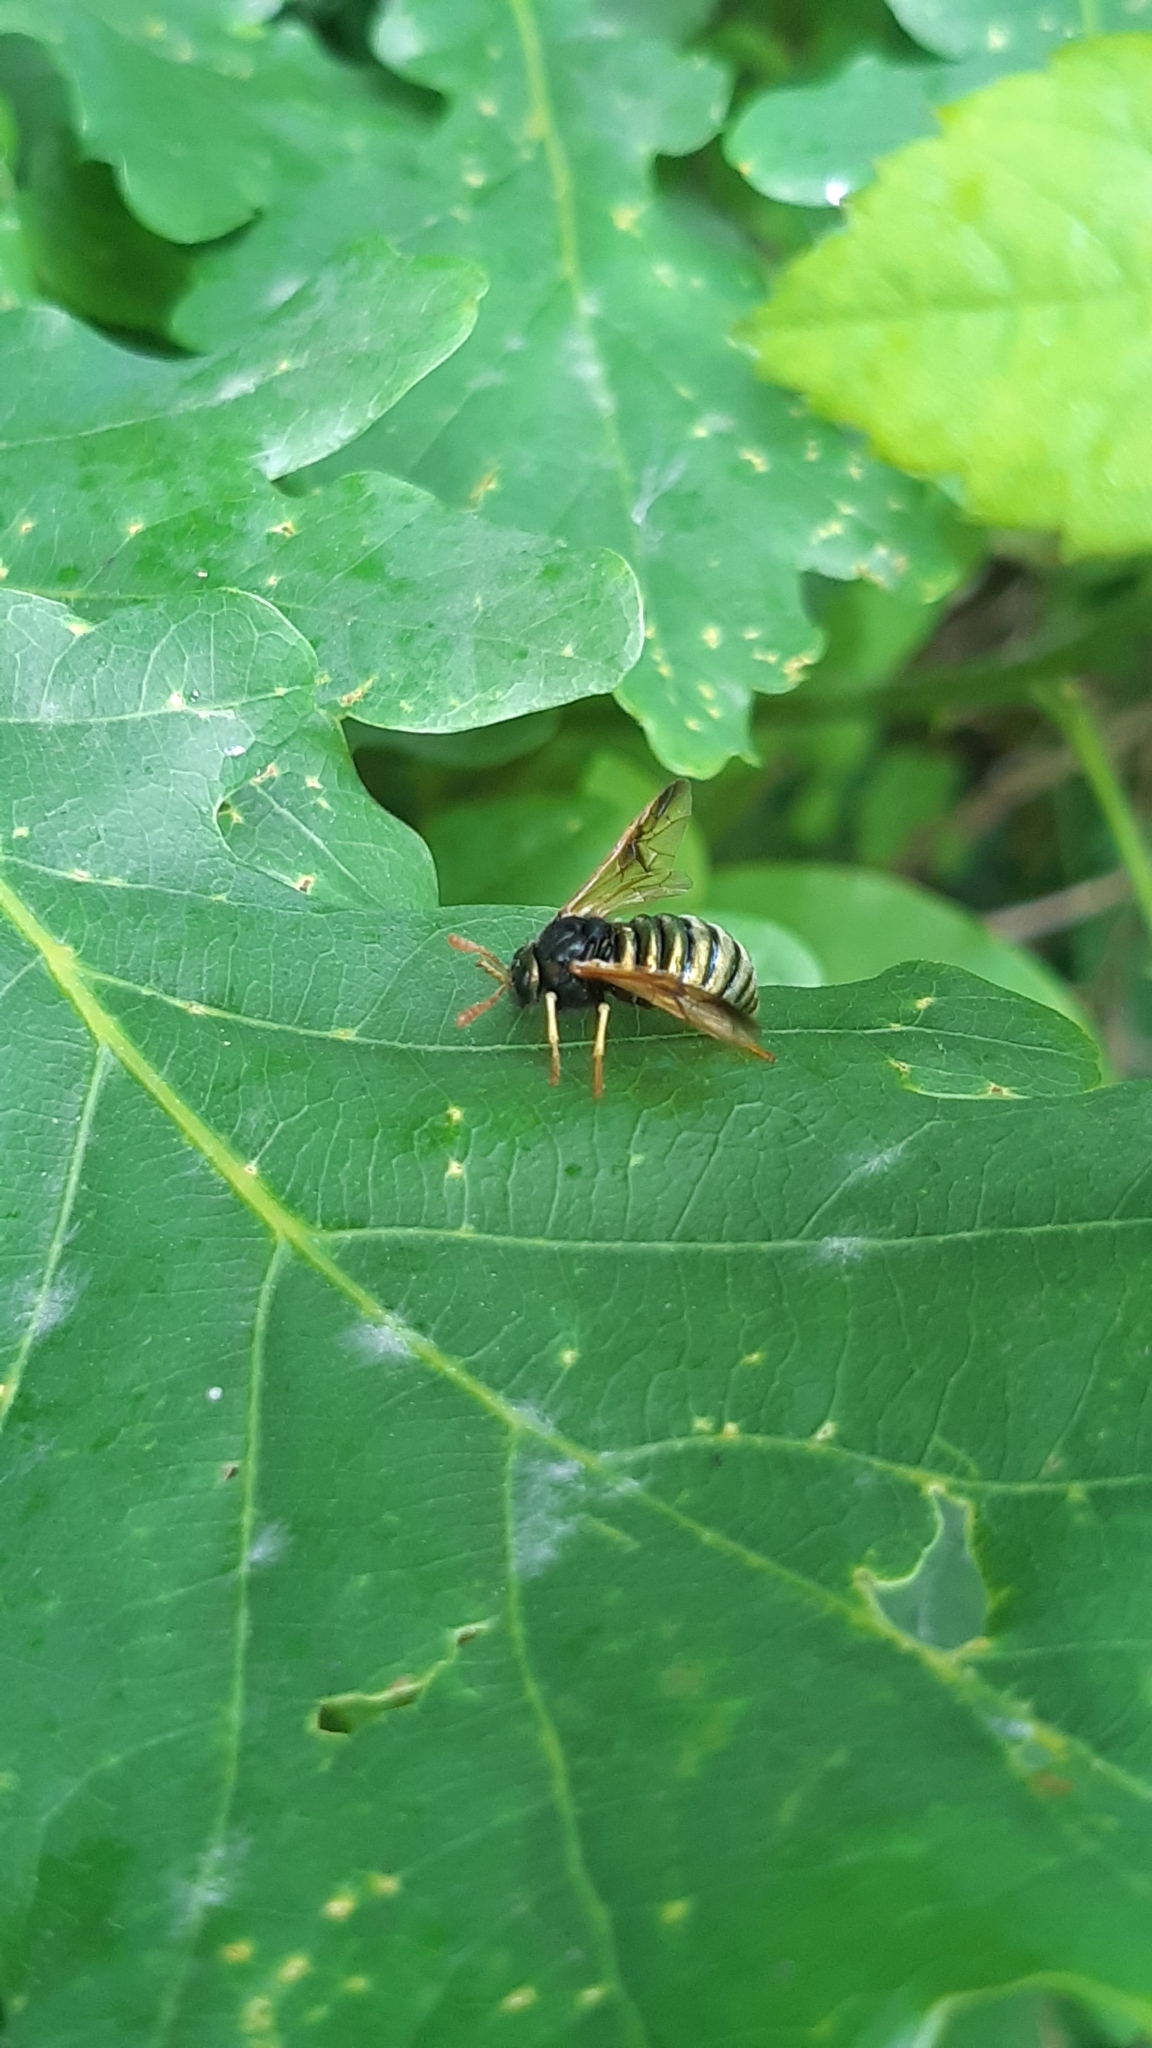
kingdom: Animalia
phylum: Arthropoda
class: Insecta
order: Hymenoptera
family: Cimbicidae
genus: Abia
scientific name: Abia nitens
